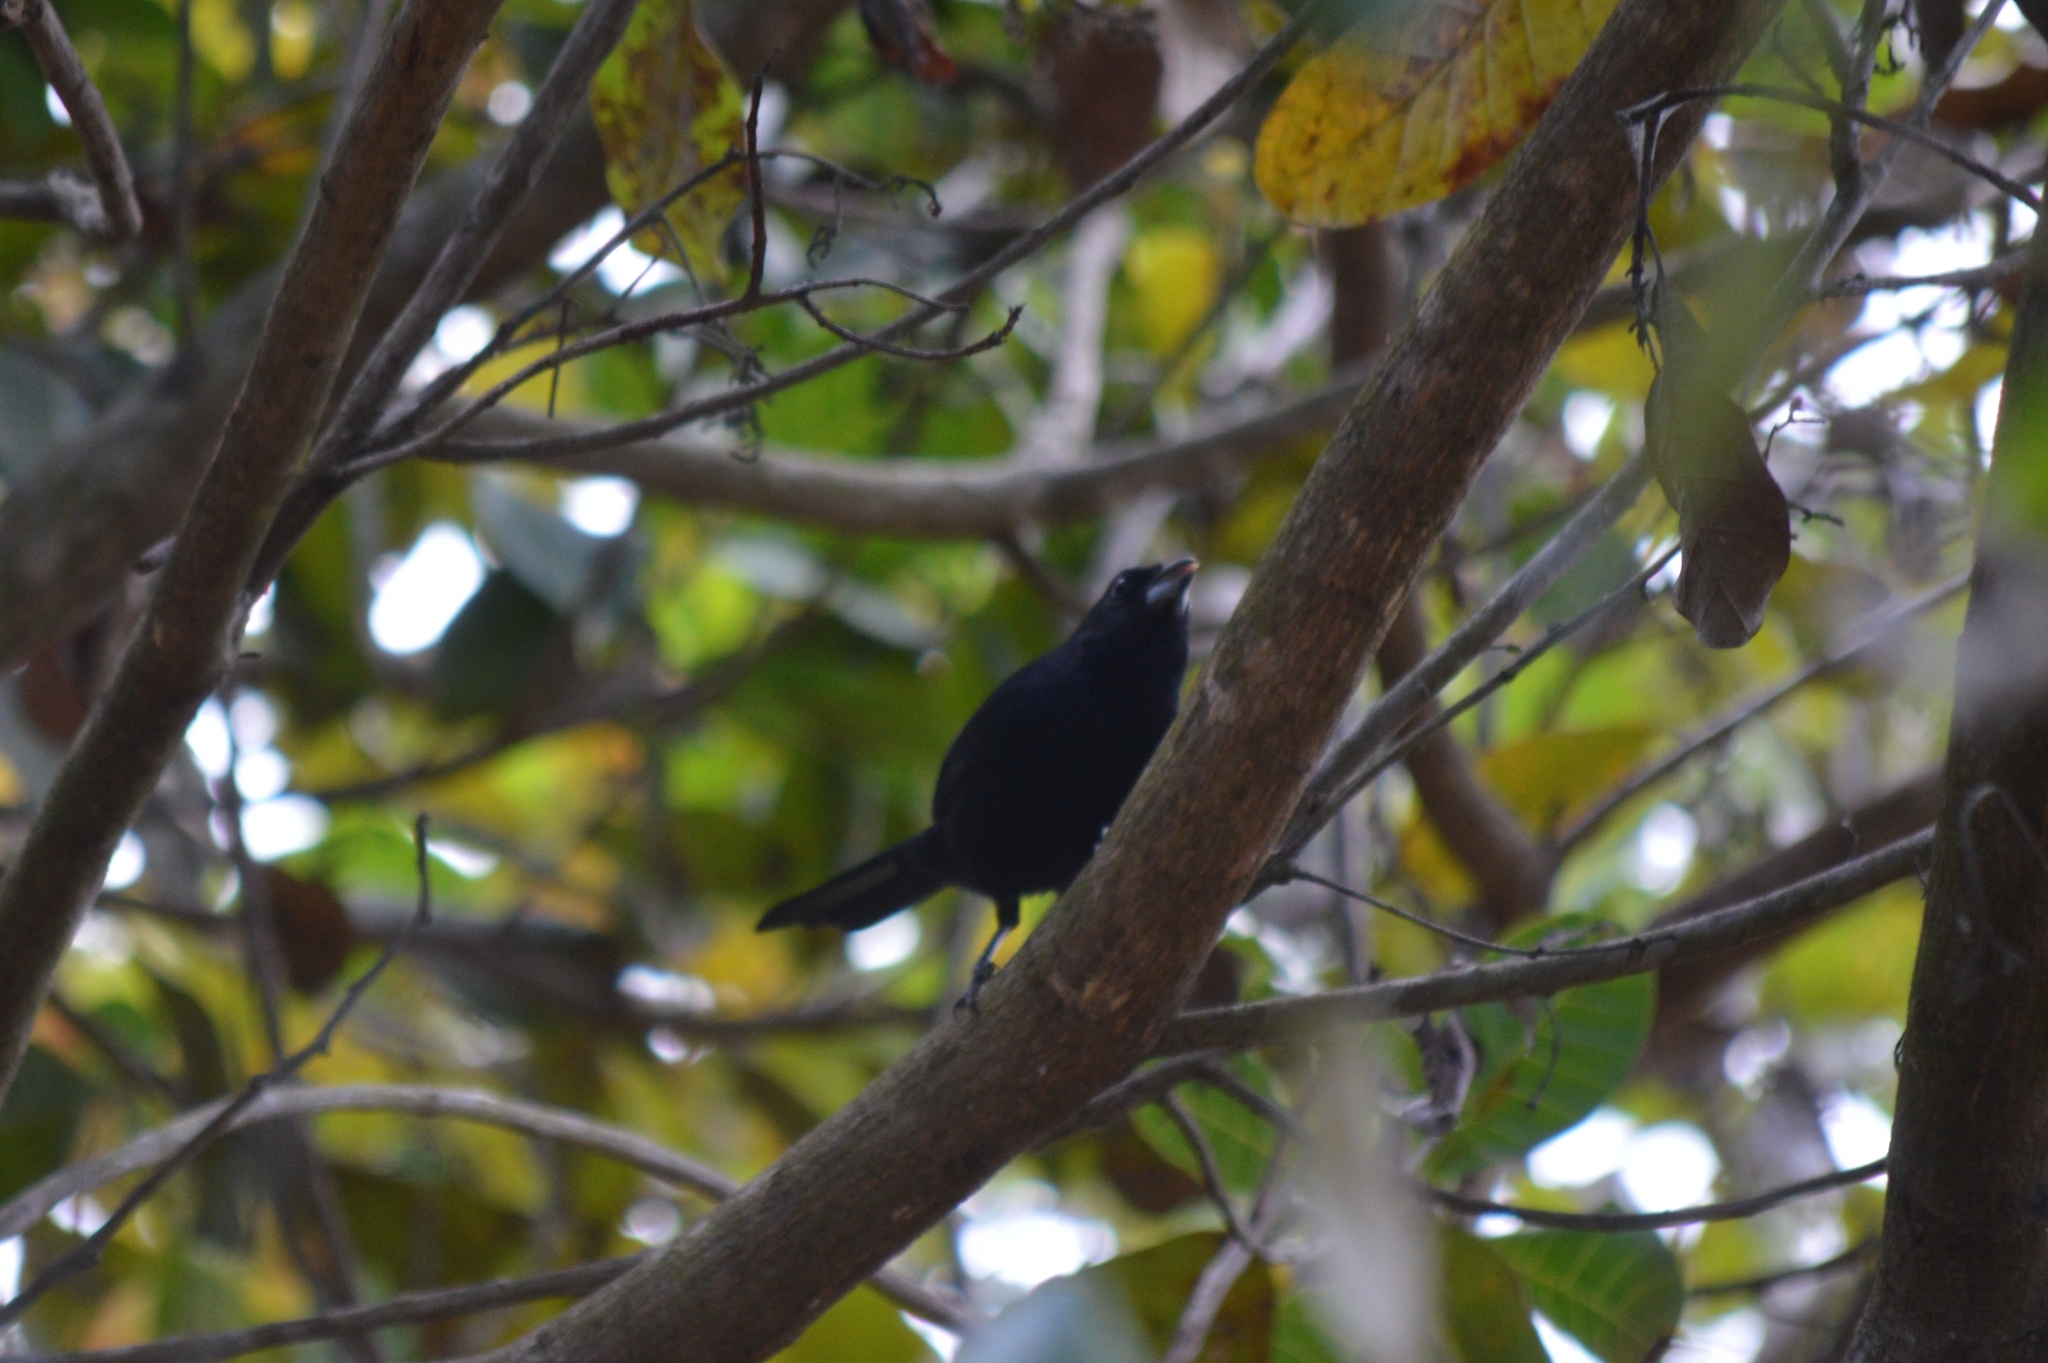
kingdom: Animalia
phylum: Chordata
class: Aves
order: Passeriformes
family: Thraupidae
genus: Tachyphonus
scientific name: Tachyphonus rufus
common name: White-lined tanager
